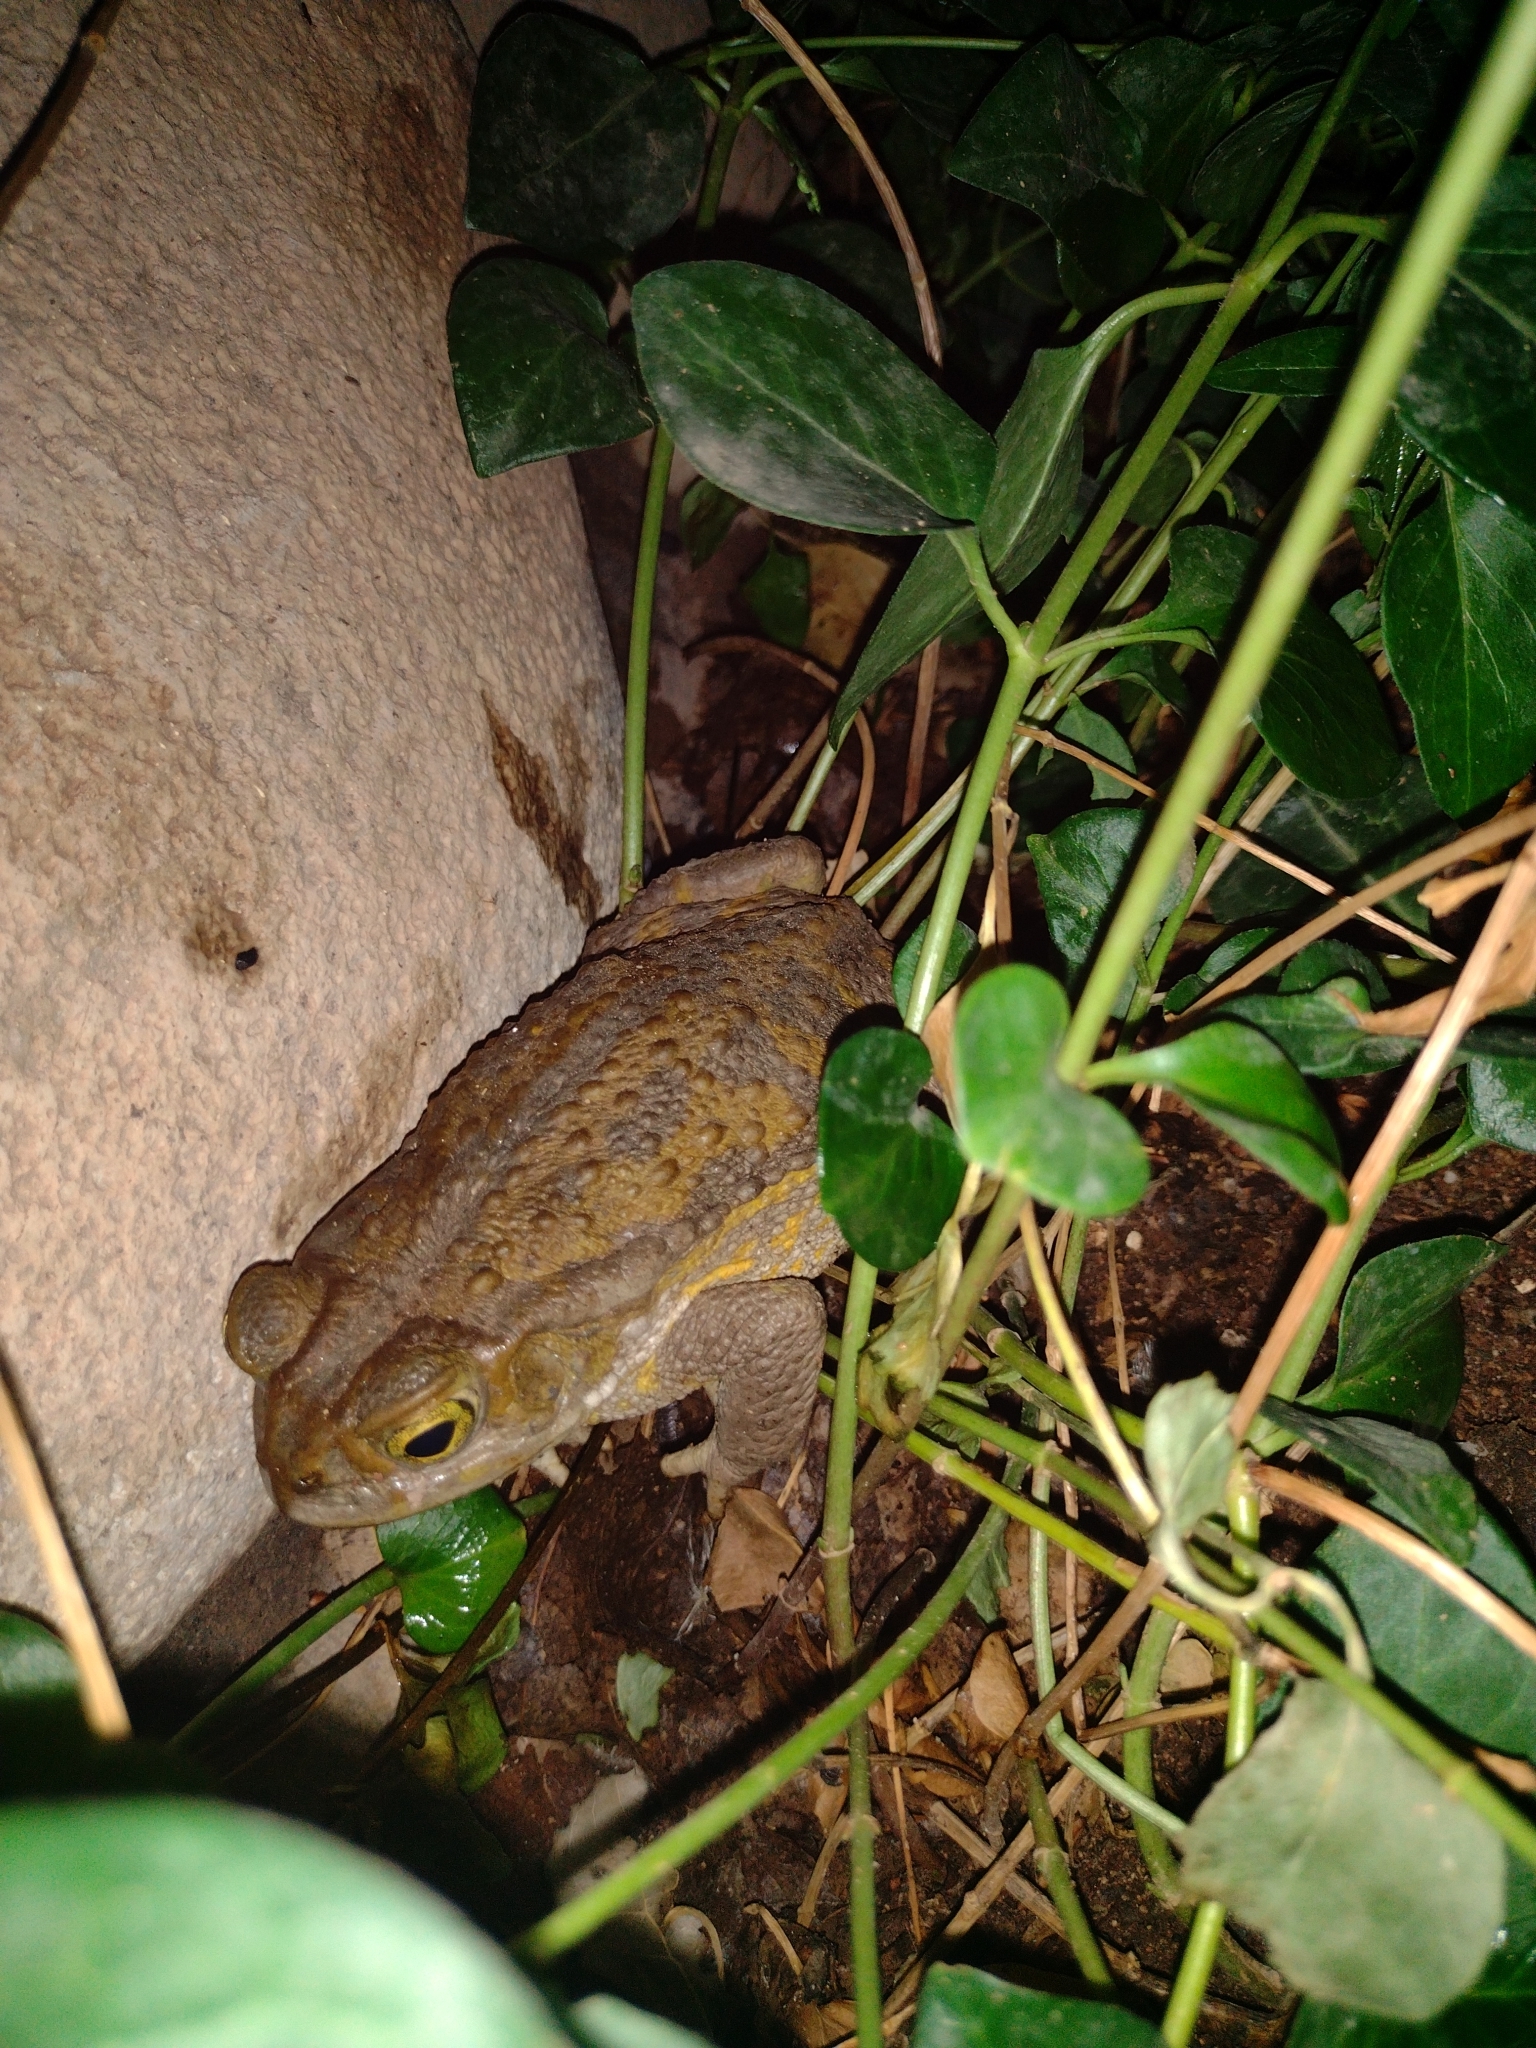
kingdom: Animalia
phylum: Chordata
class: Amphibia
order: Anura
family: Bufonidae
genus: Rhinella
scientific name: Rhinella arenarum
